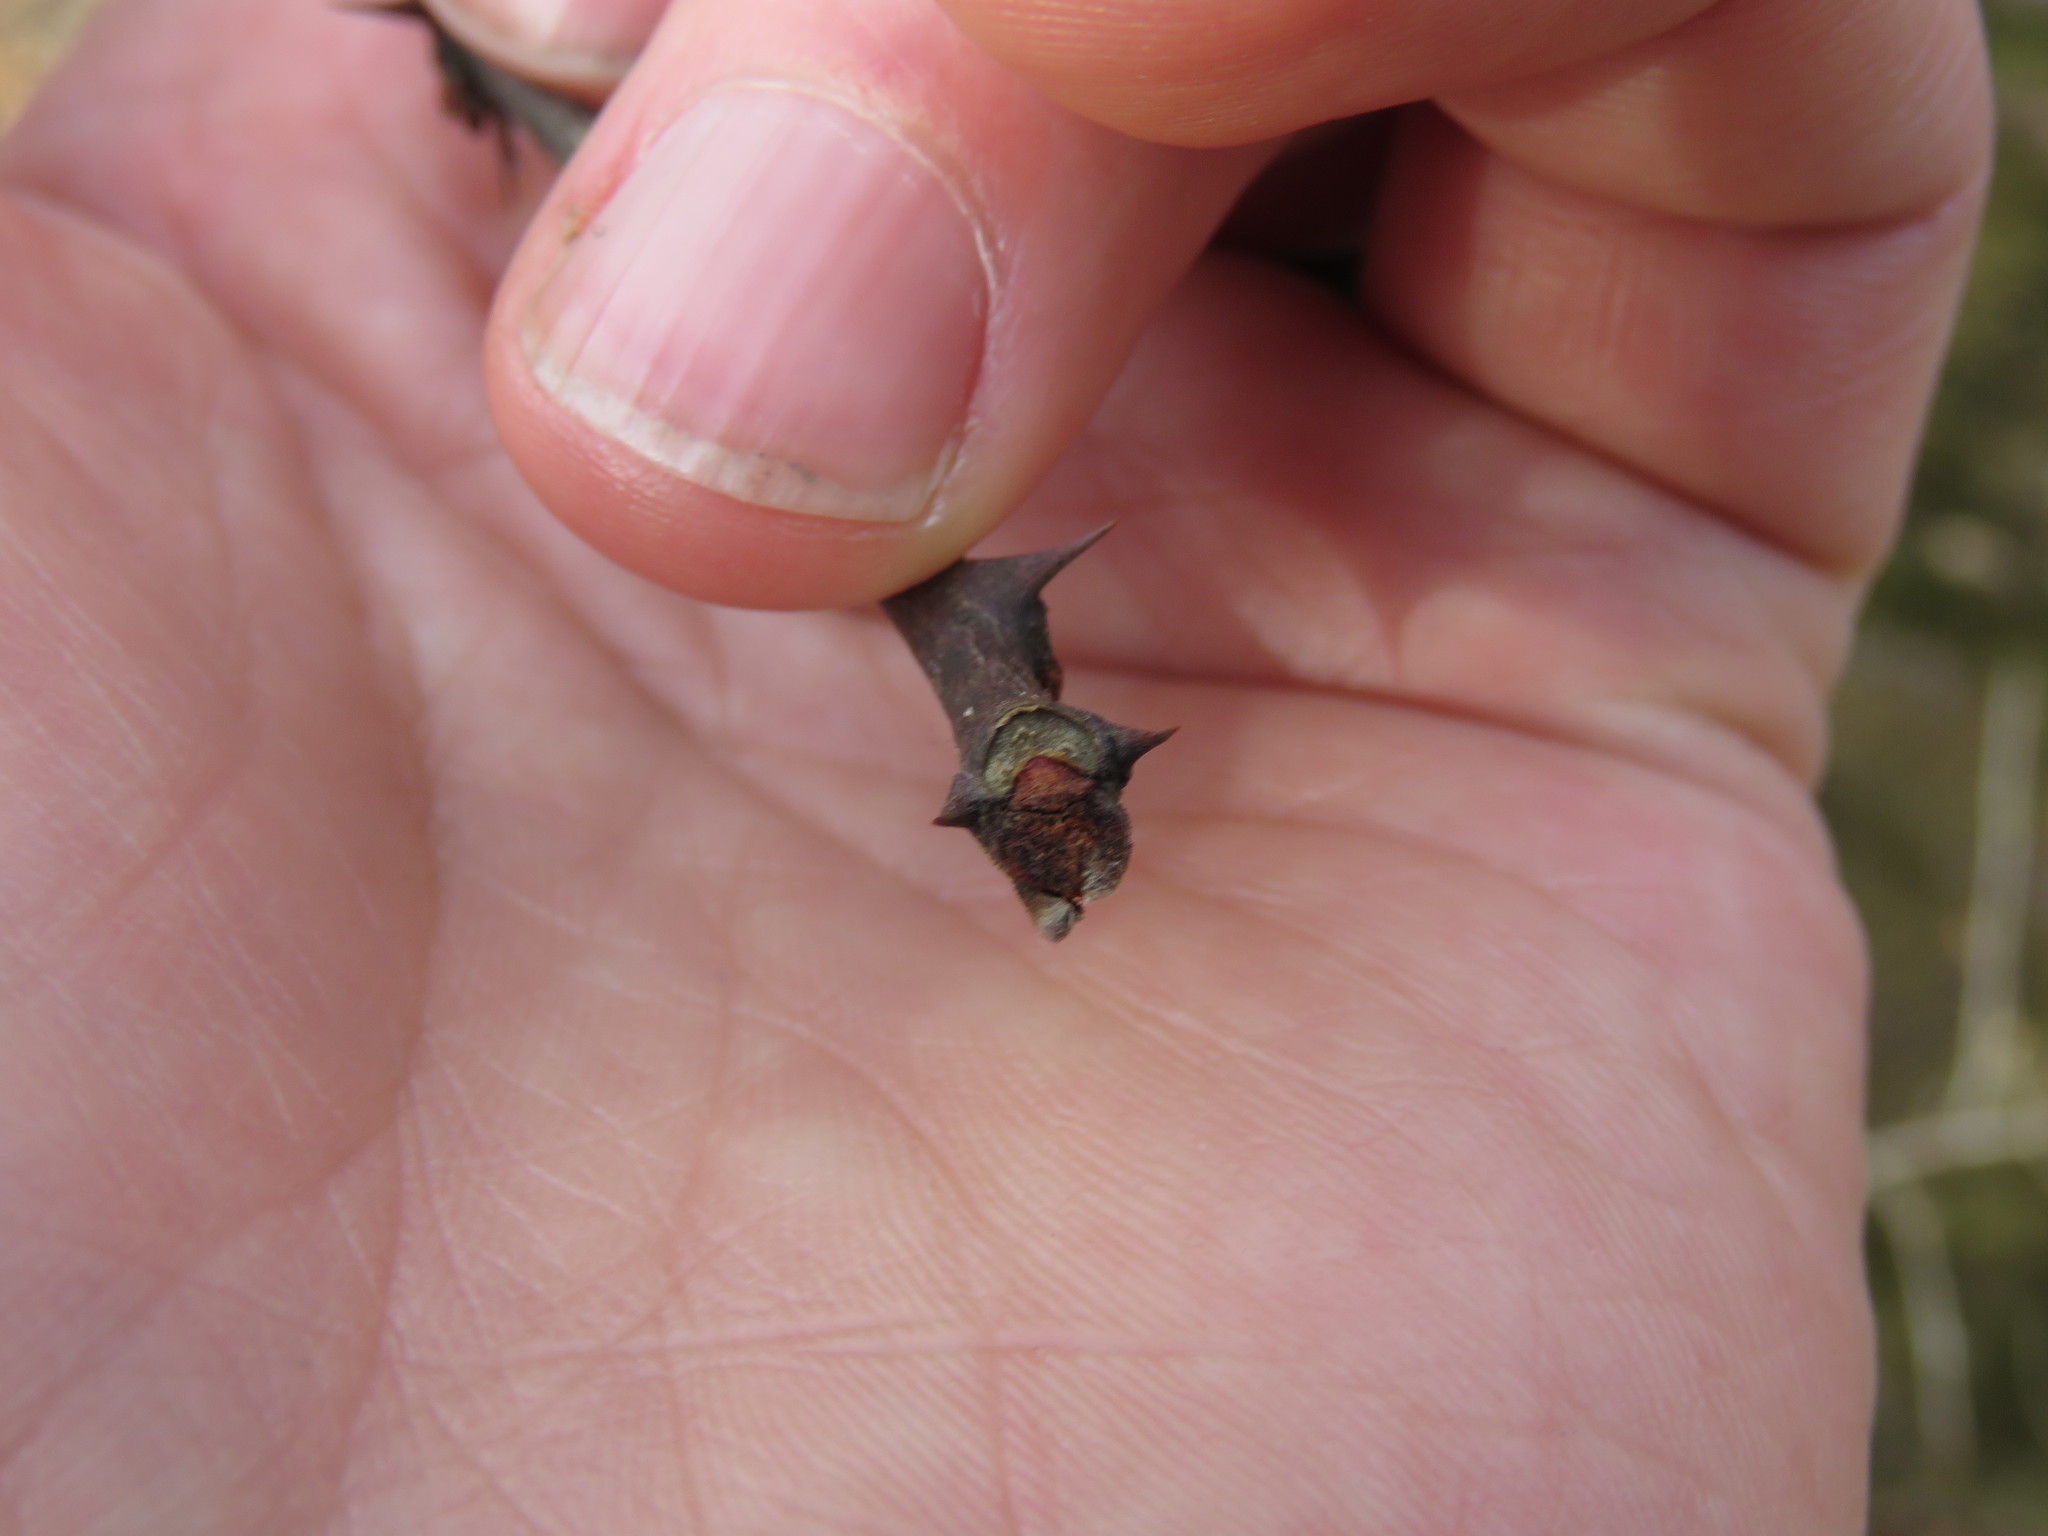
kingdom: Plantae
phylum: Tracheophyta
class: Magnoliopsida
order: Sapindales
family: Rutaceae
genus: Zanthoxylum
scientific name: Zanthoxylum americanum
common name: Northern prickly-ash
